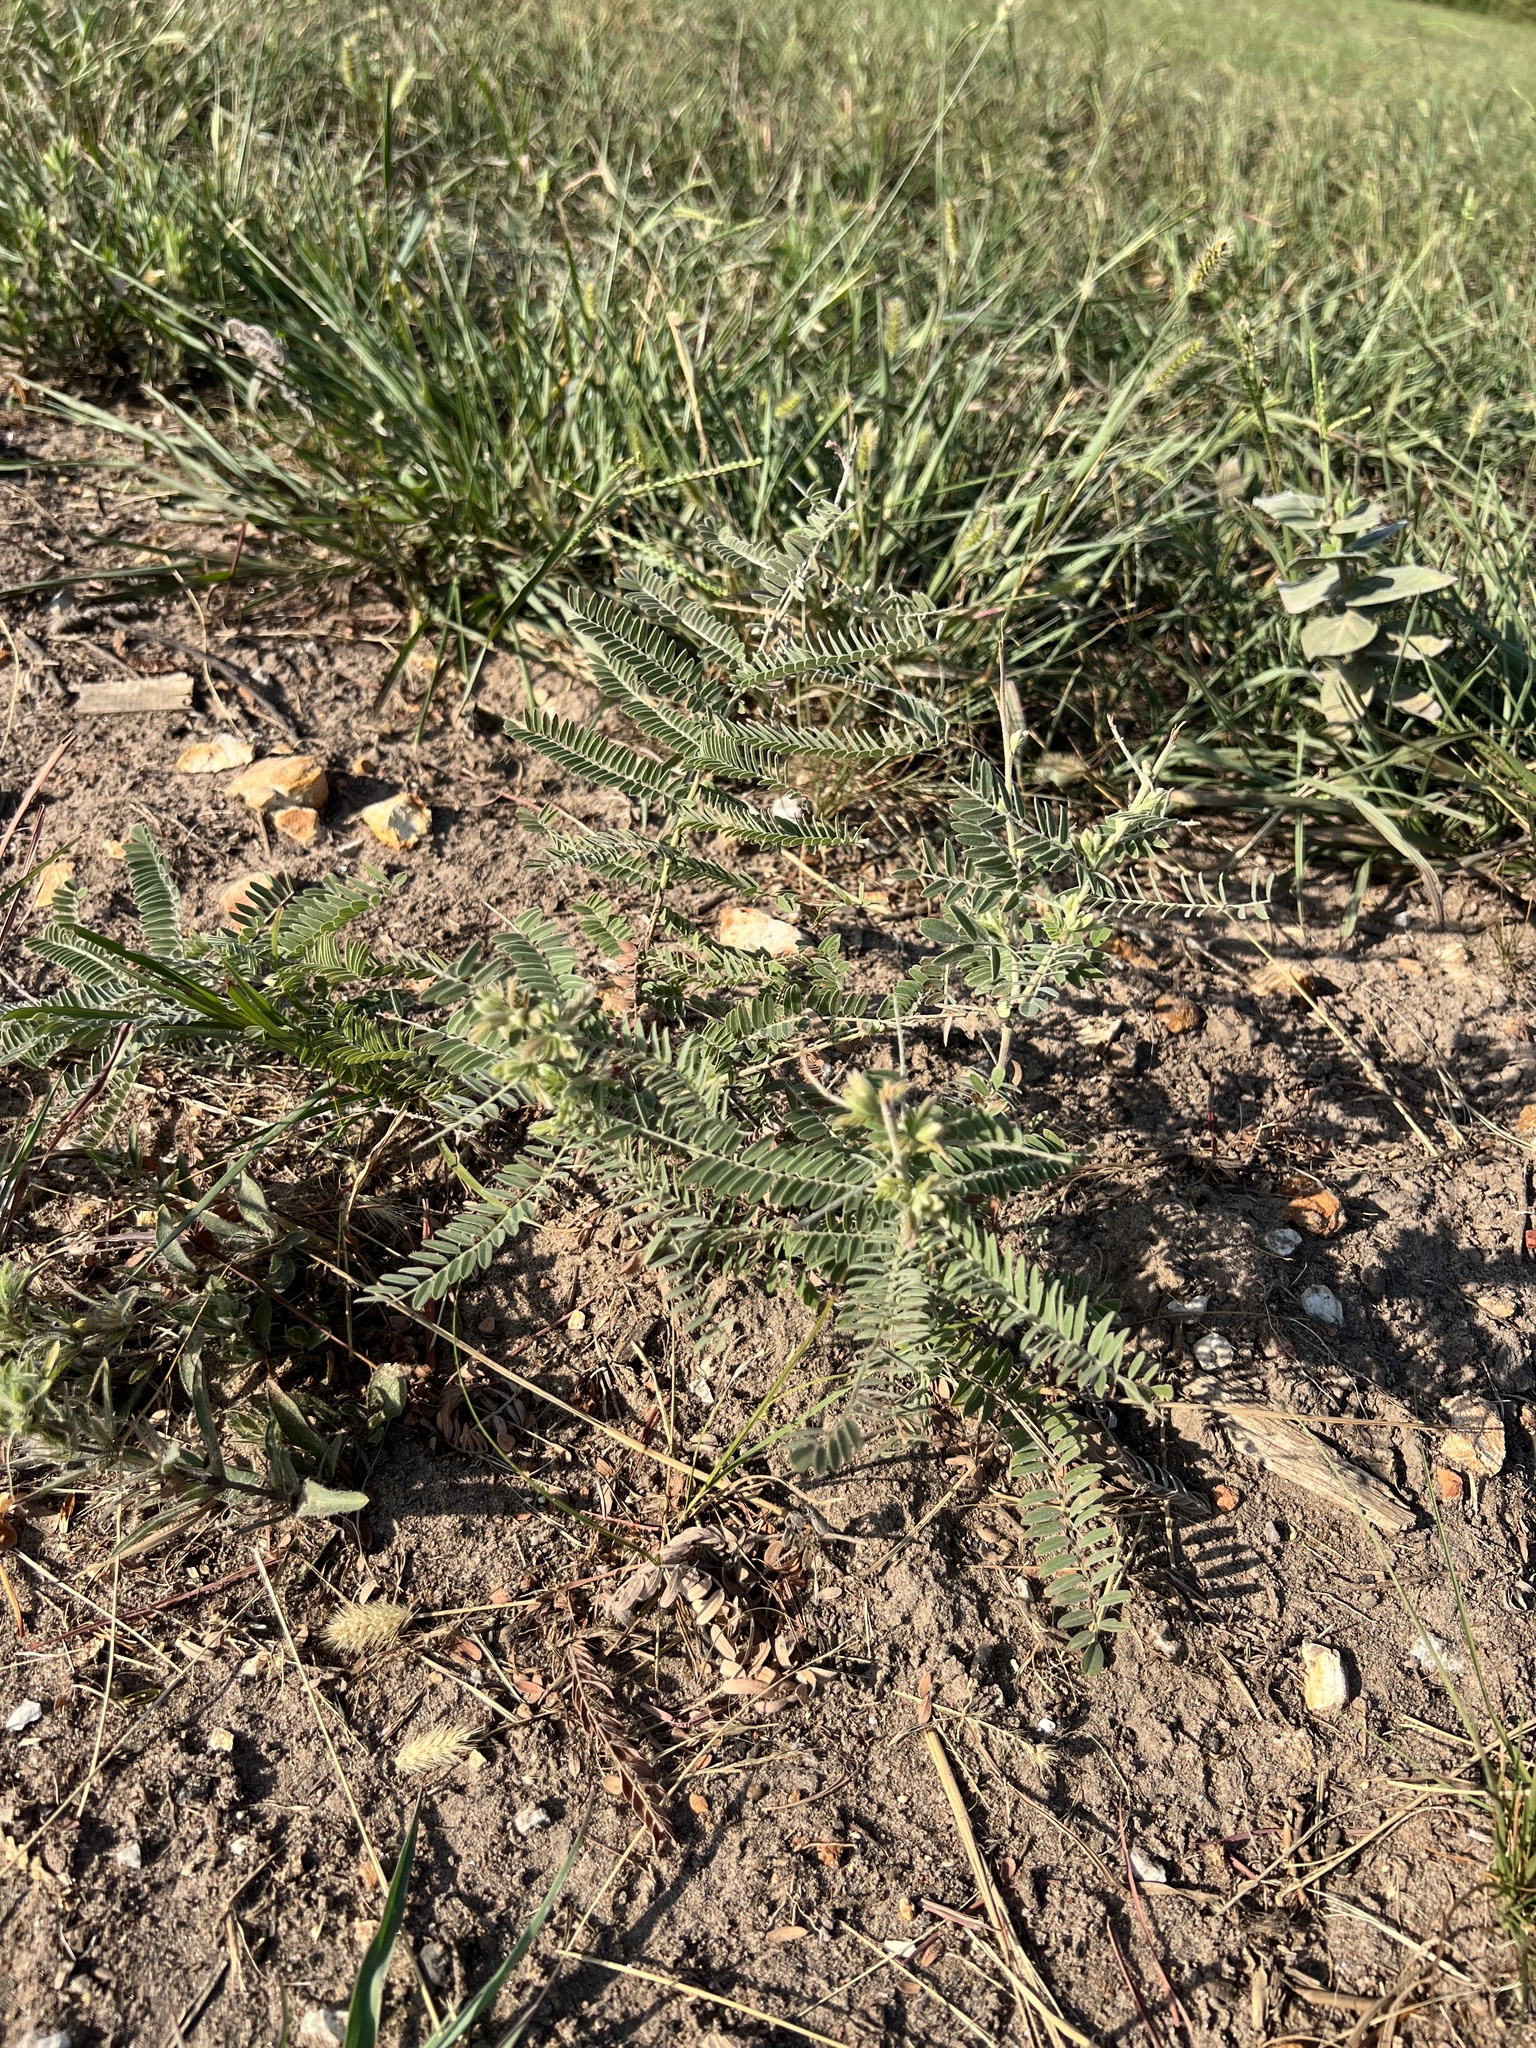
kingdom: Plantae
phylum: Tracheophyta
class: Magnoliopsida
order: Fabales
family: Fabaceae
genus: Amorpha
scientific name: Amorpha canescens
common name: Leadplant
